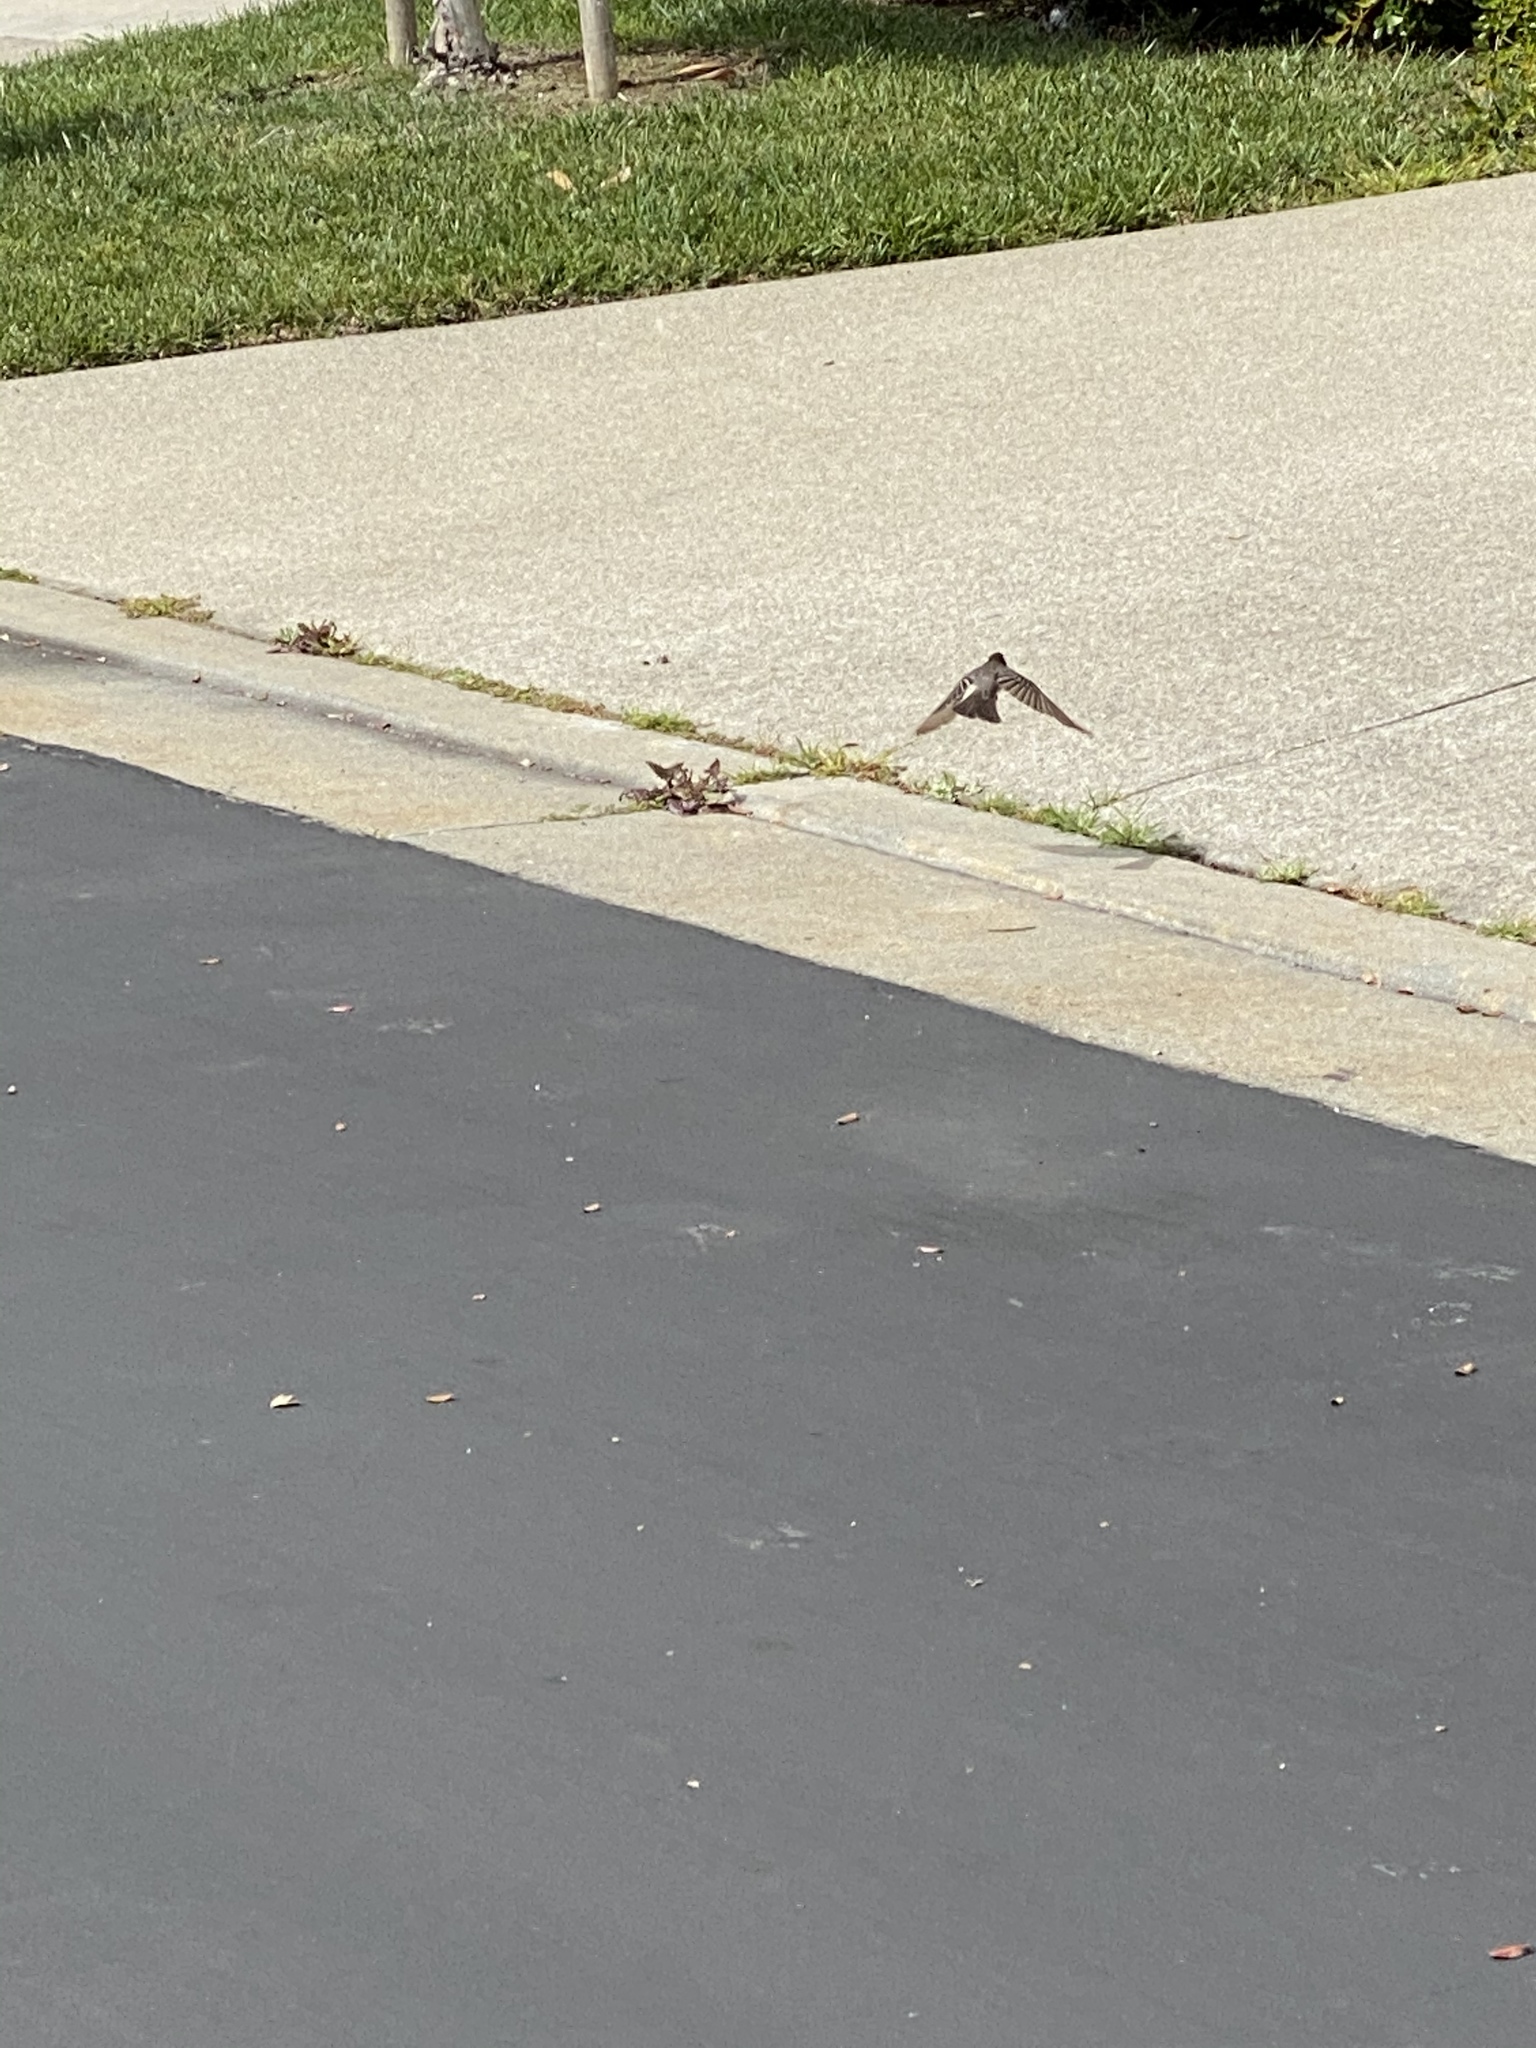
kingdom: Animalia
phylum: Chordata
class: Aves
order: Passeriformes
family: Tyrannidae
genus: Sayornis
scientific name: Sayornis nigricans
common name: Black phoebe
